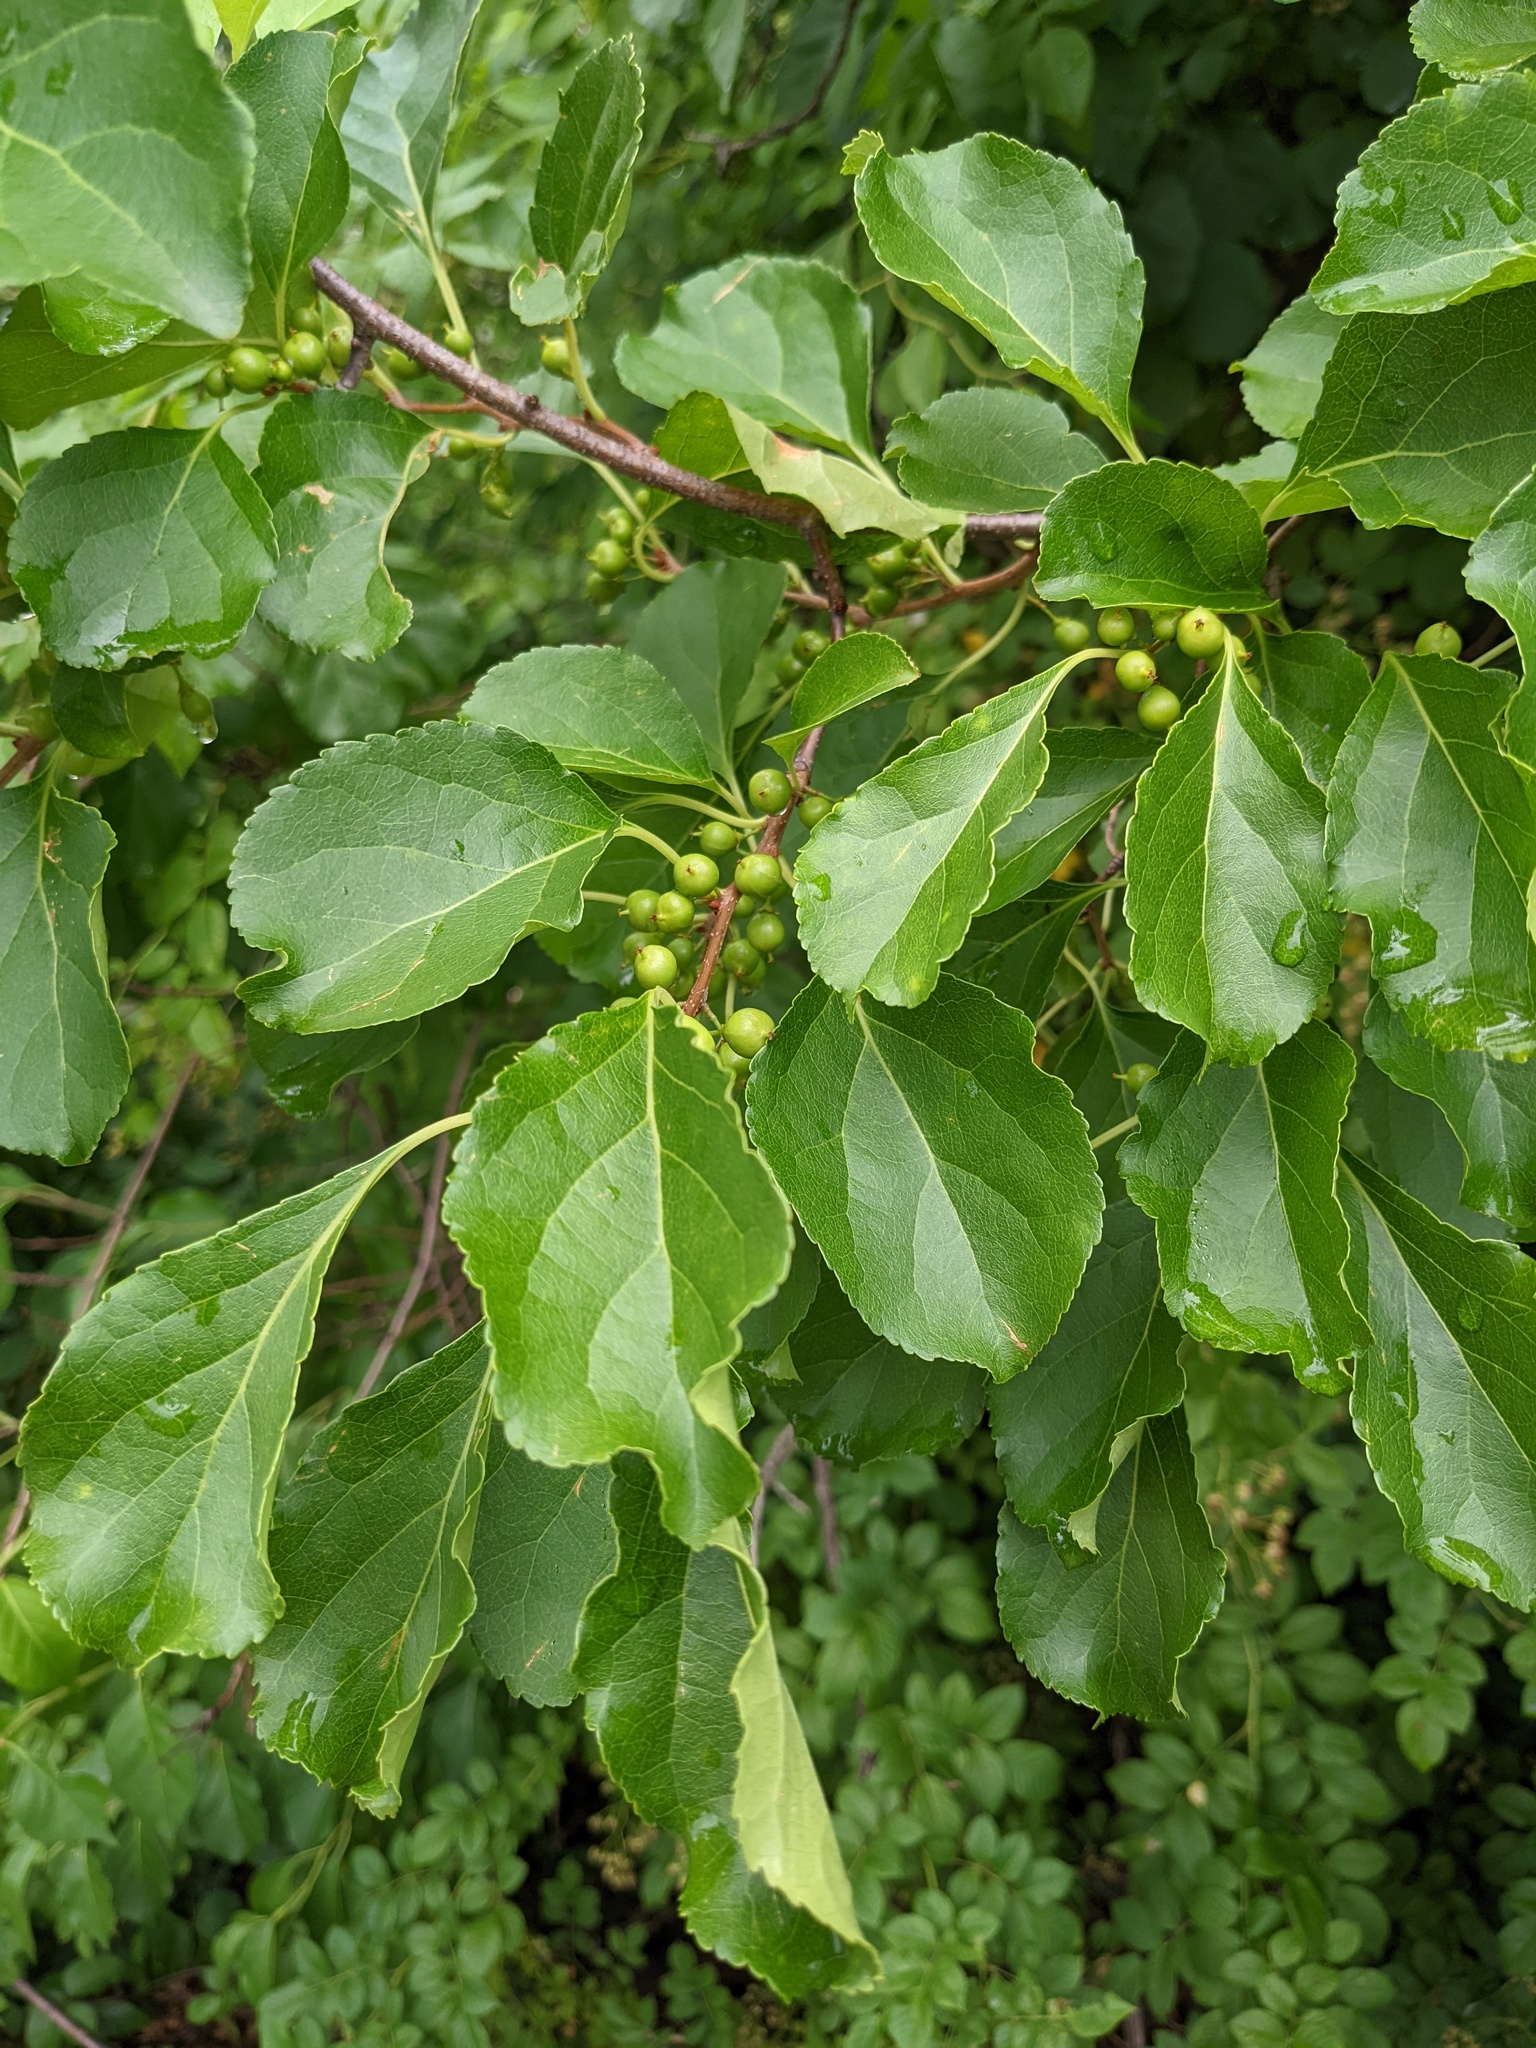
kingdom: Plantae
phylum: Tracheophyta
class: Magnoliopsida
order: Celastrales
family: Celastraceae
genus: Celastrus
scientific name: Celastrus orbiculatus
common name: Oriental bittersweet
